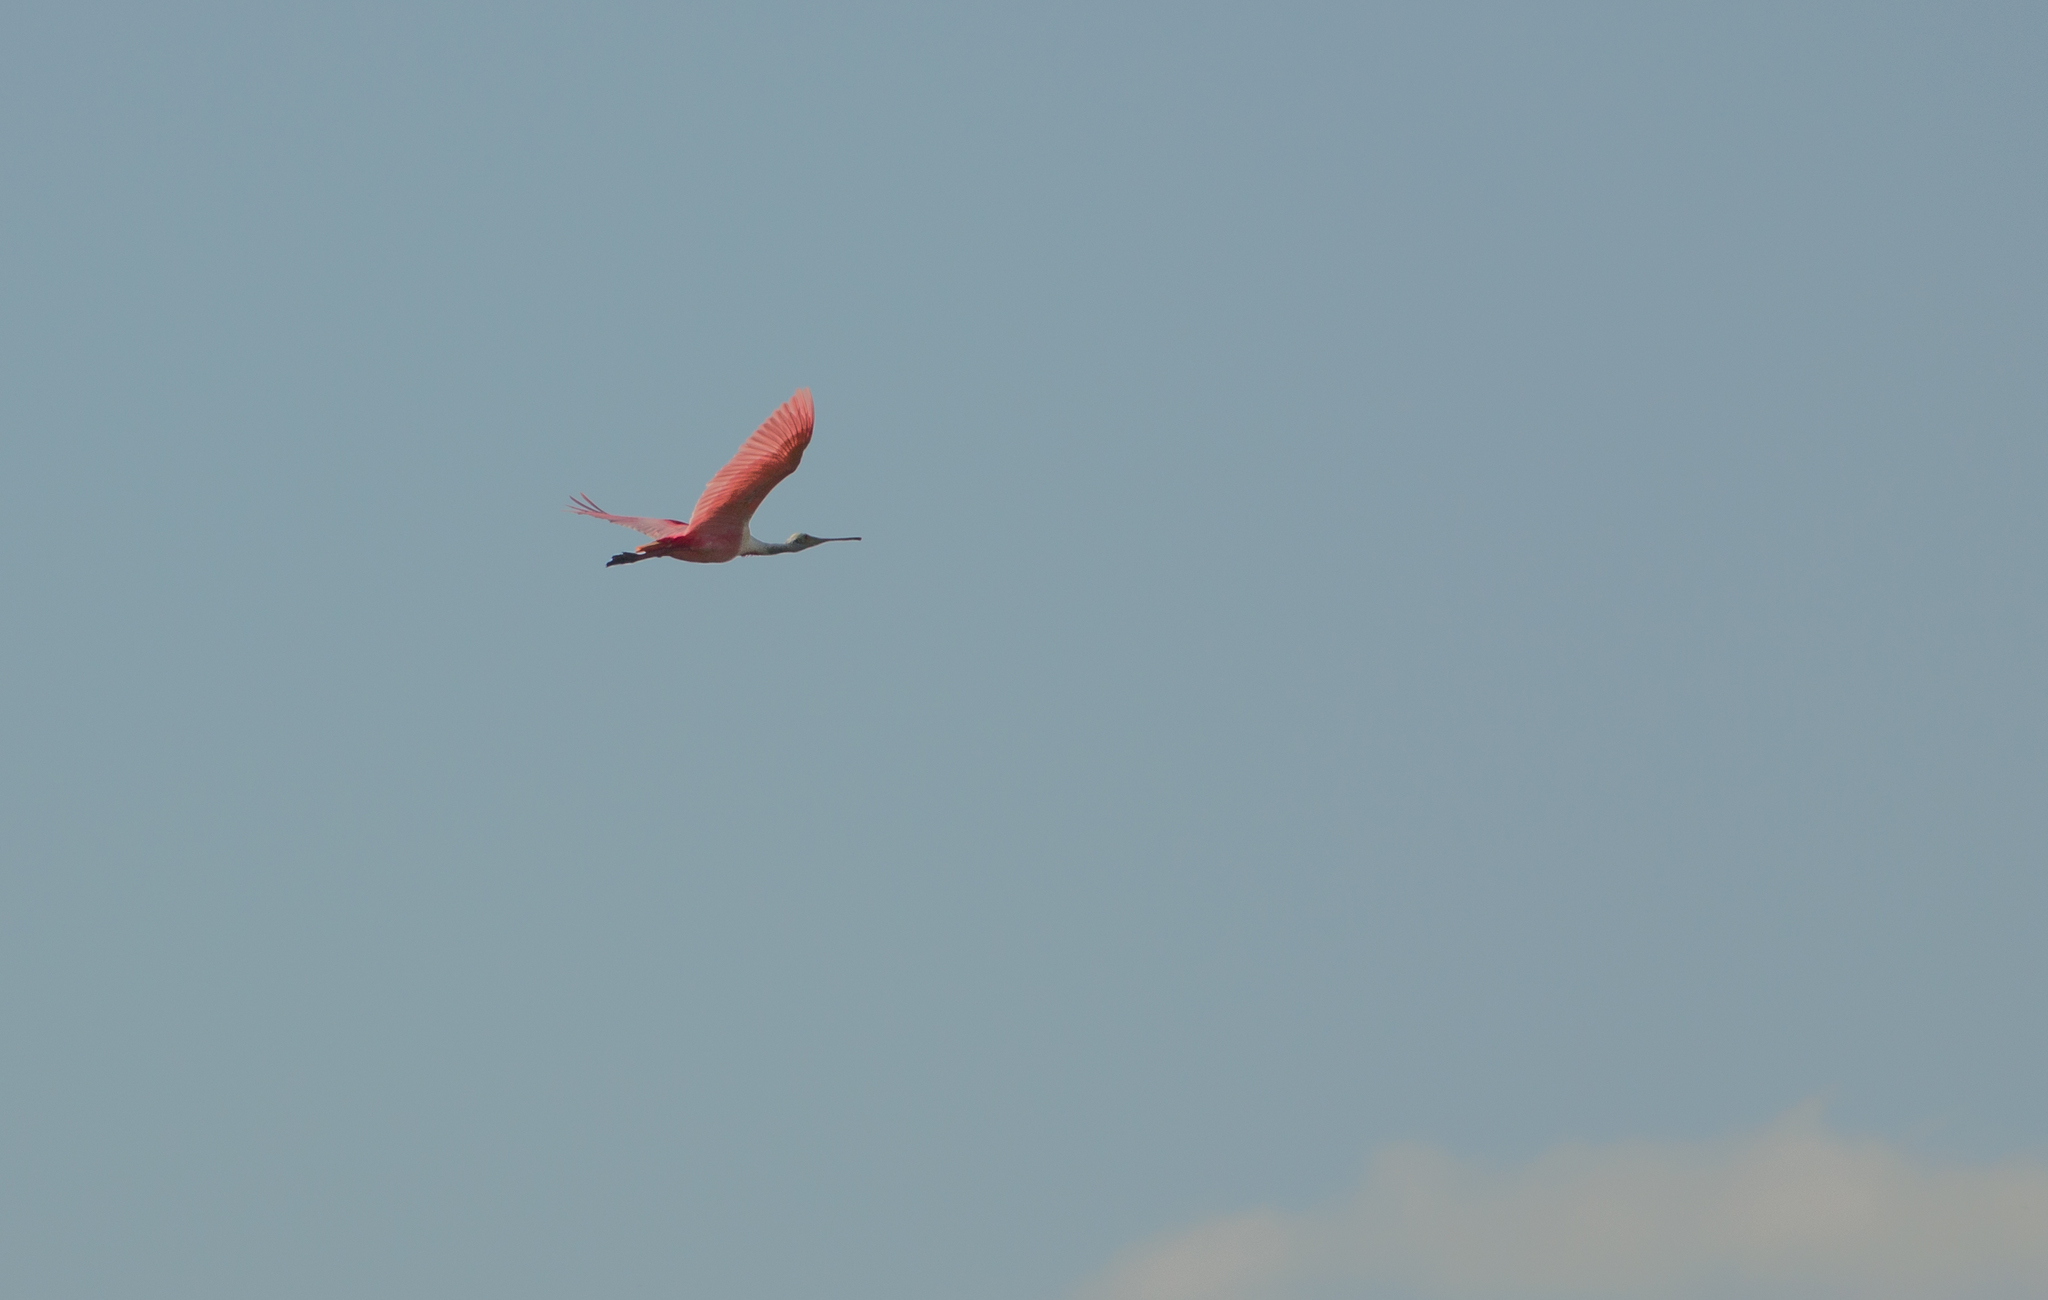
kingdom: Animalia
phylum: Chordata
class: Aves
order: Pelecaniformes
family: Threskiornithidae
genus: Platalea
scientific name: Platalea ajaja
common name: Roseate spoonbill
